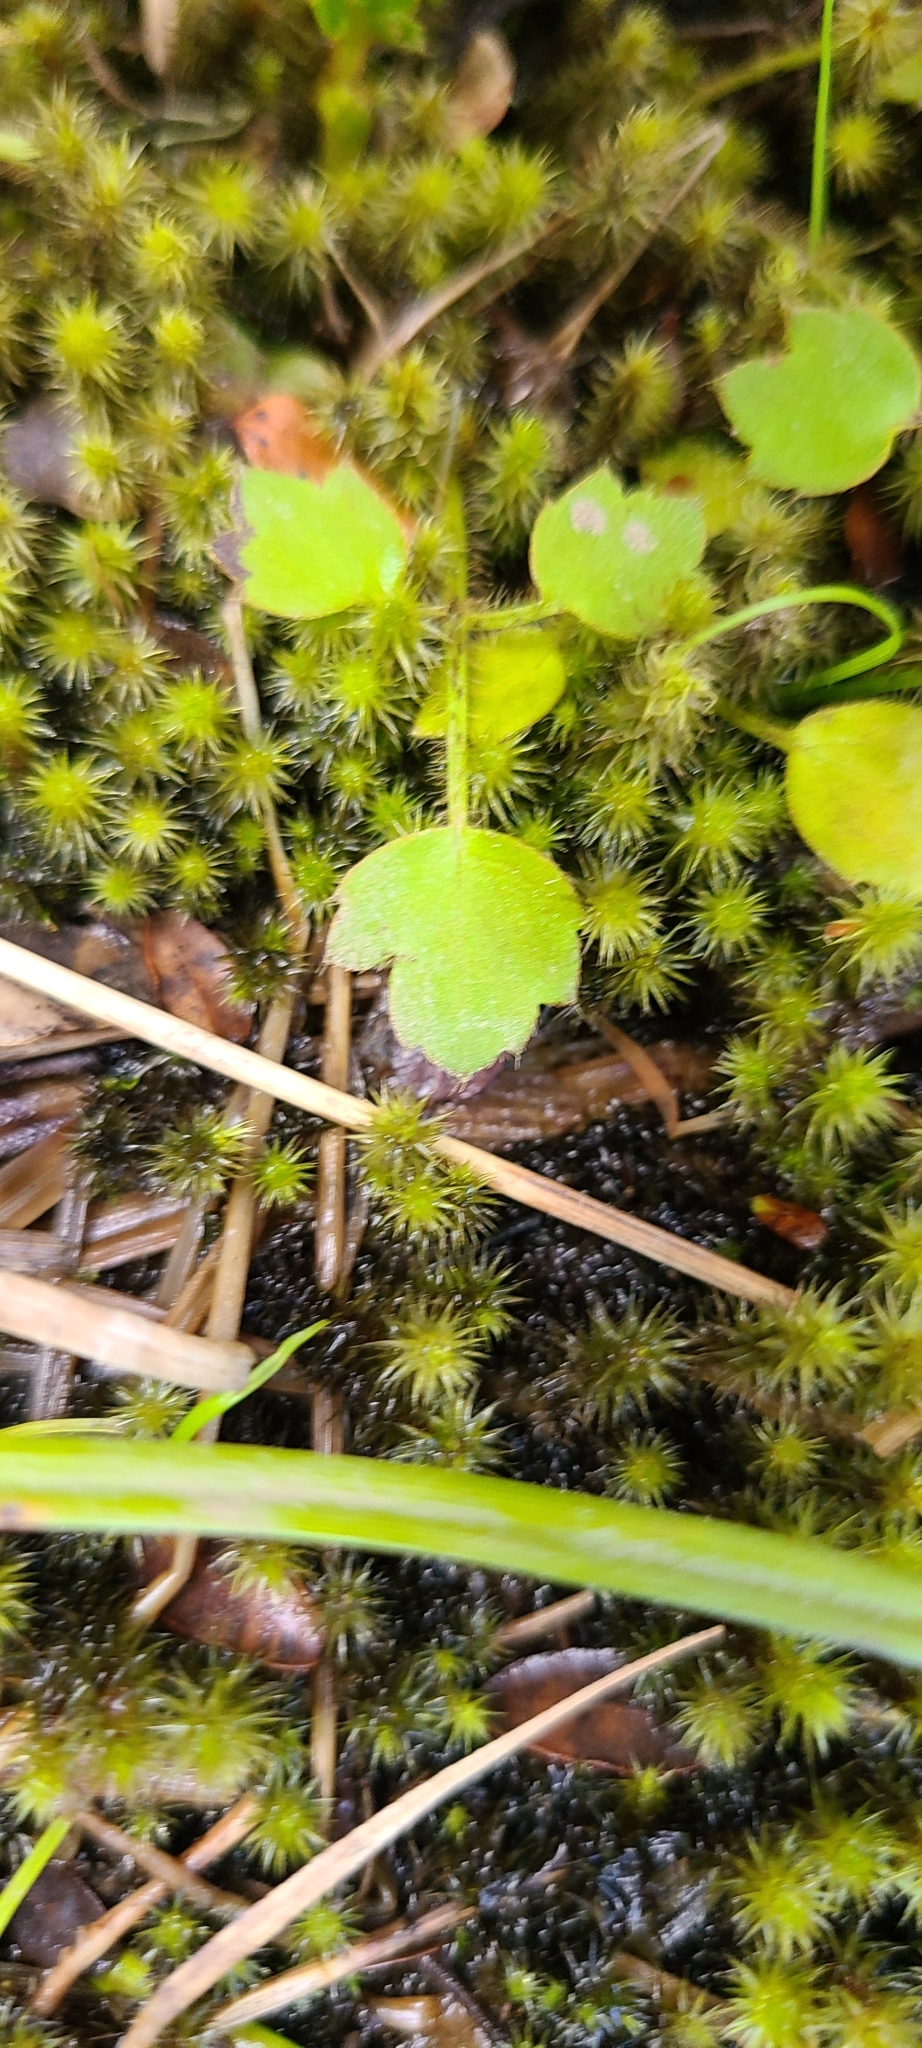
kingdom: Plantae
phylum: Tracheophyta
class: Magnoliopsida
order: Ranunculales
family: Ranunculaceae
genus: Ranunculus
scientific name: Ranunculus reflexus
